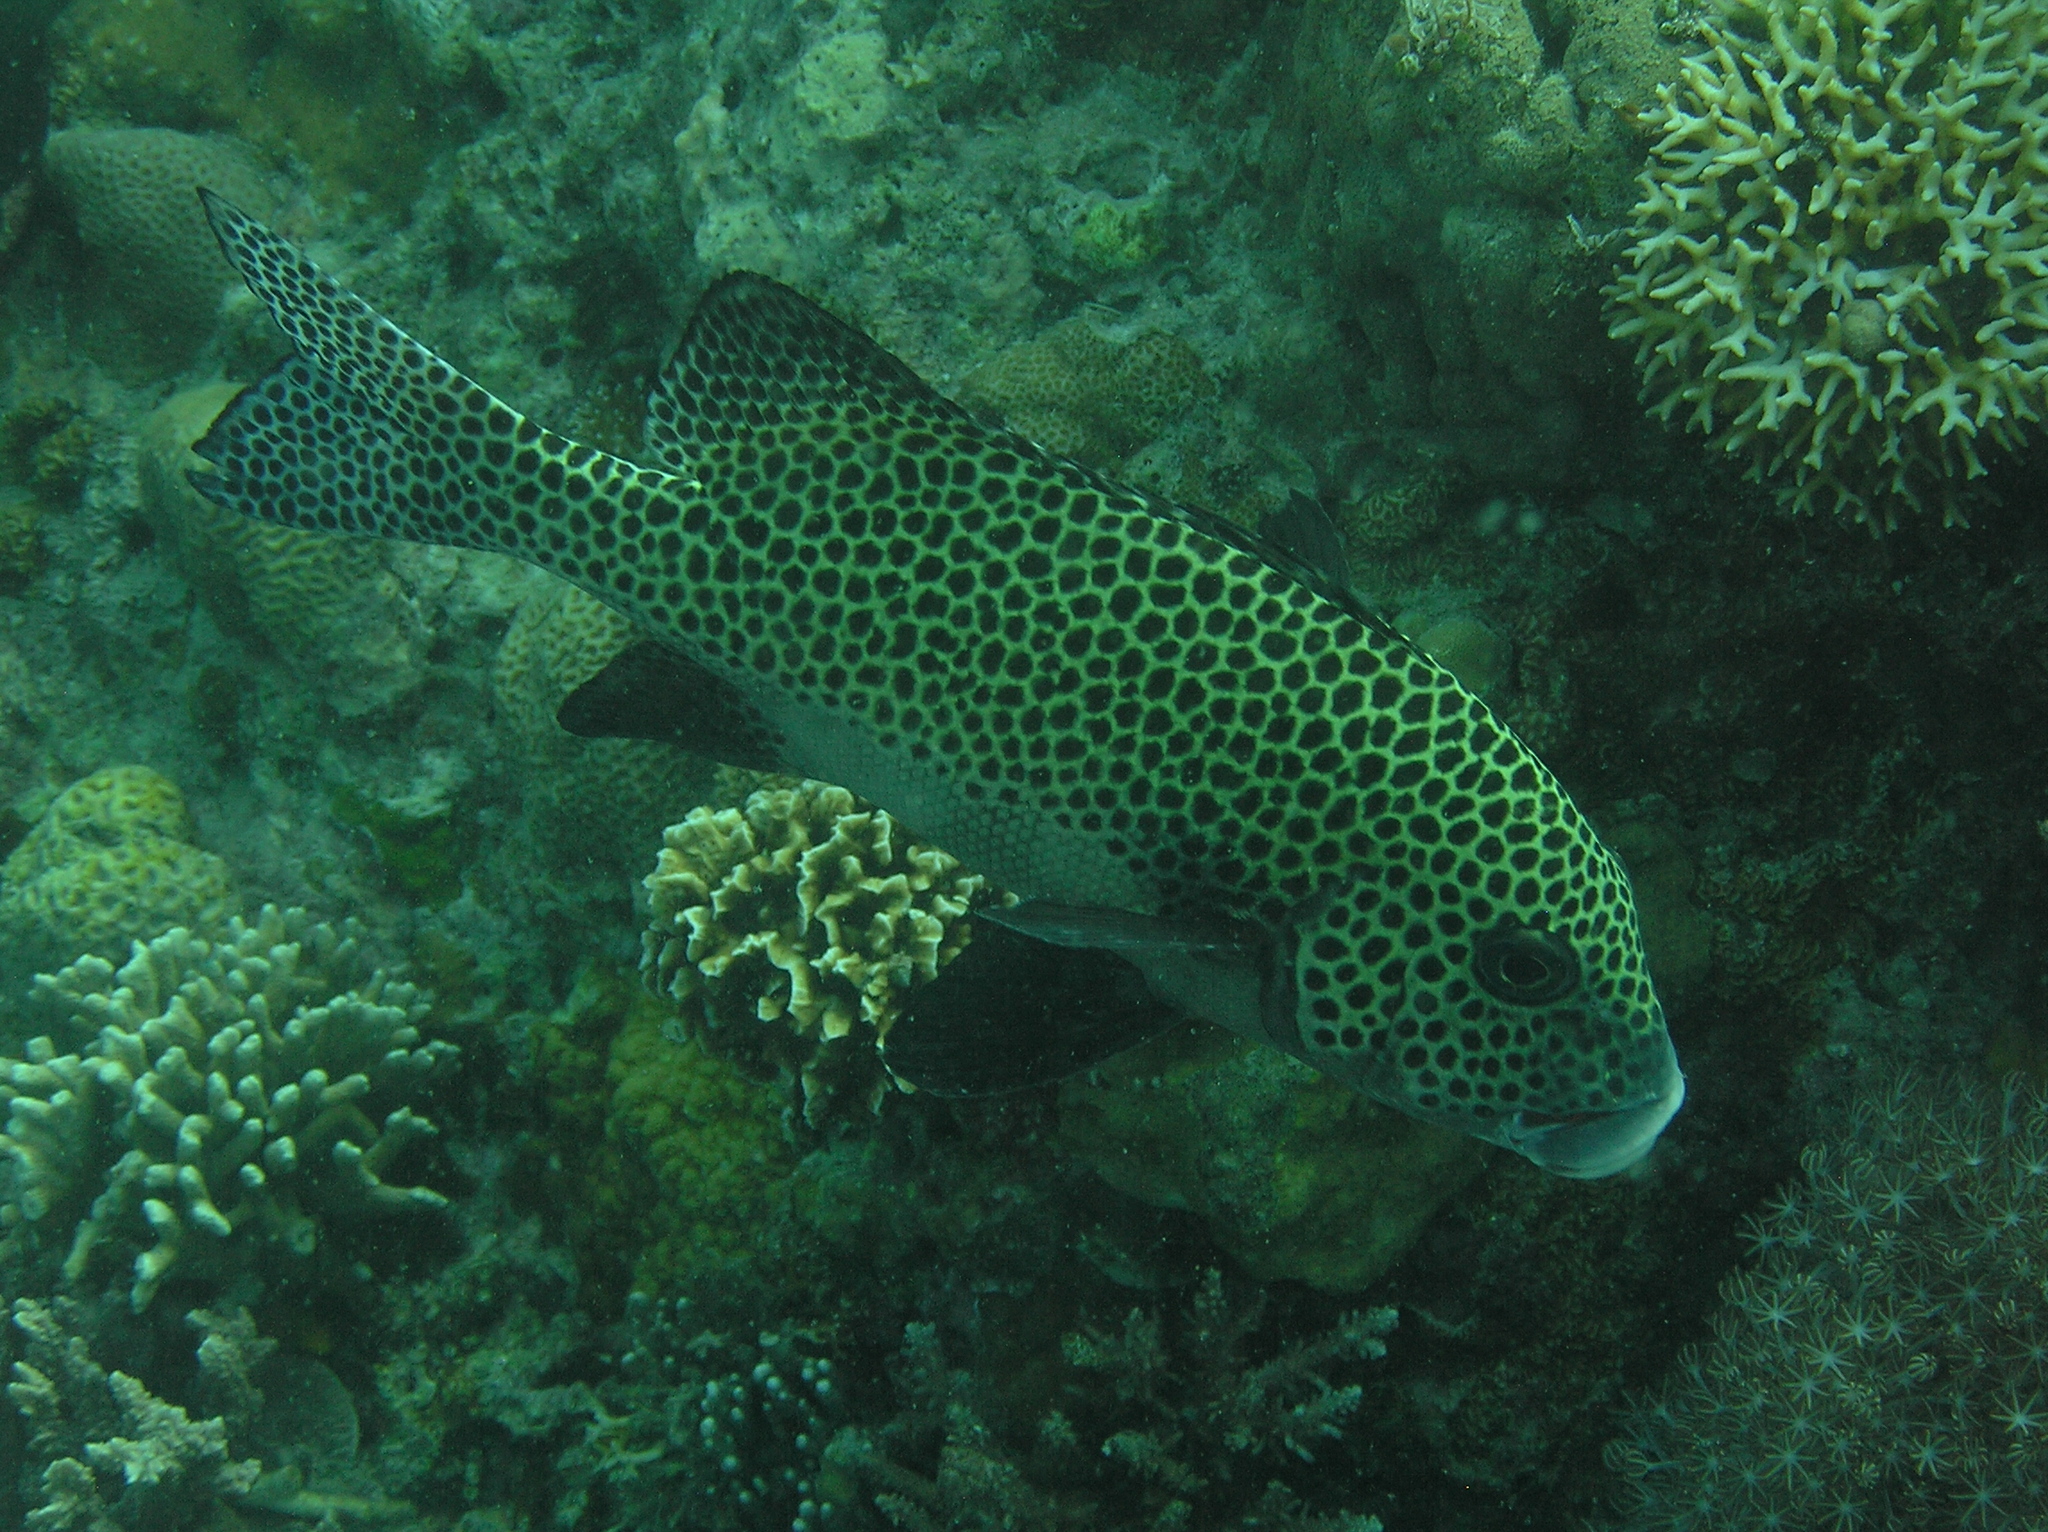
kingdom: Animalia
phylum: Chordata
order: Perciformes
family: Haemulidae
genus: Plectorhinchus
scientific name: Plectorhinchus chaetodonoides
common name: Harlequin sweetlips
